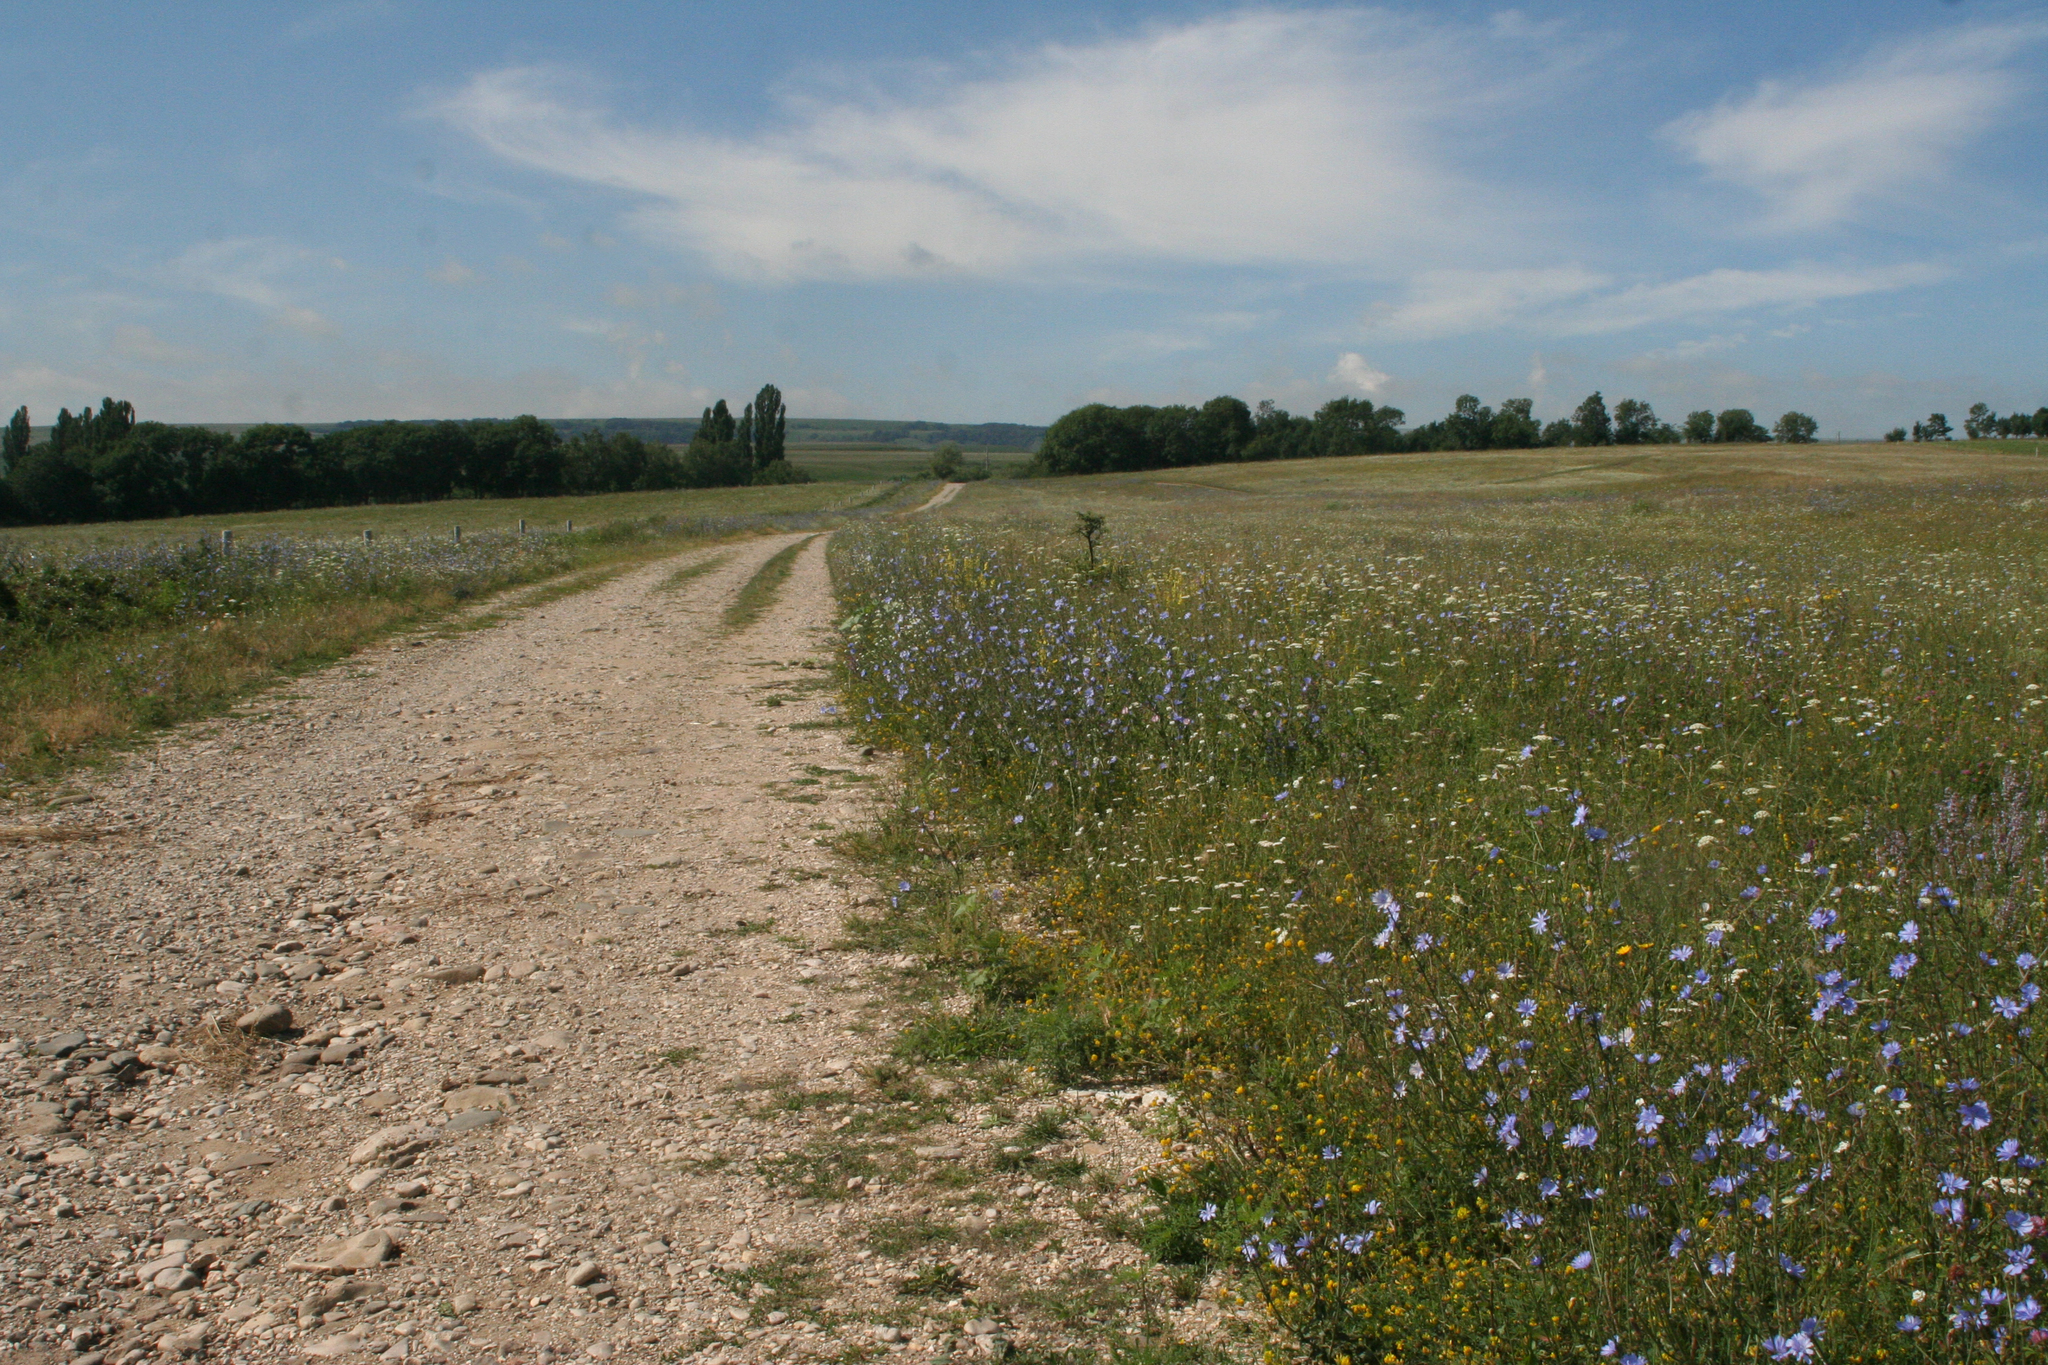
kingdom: Plantae
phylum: Tracheophyta
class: Magnoliopsida
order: Asterales
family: Asteraceae
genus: Cichorium
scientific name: Cichorium intybus
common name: Chicory
